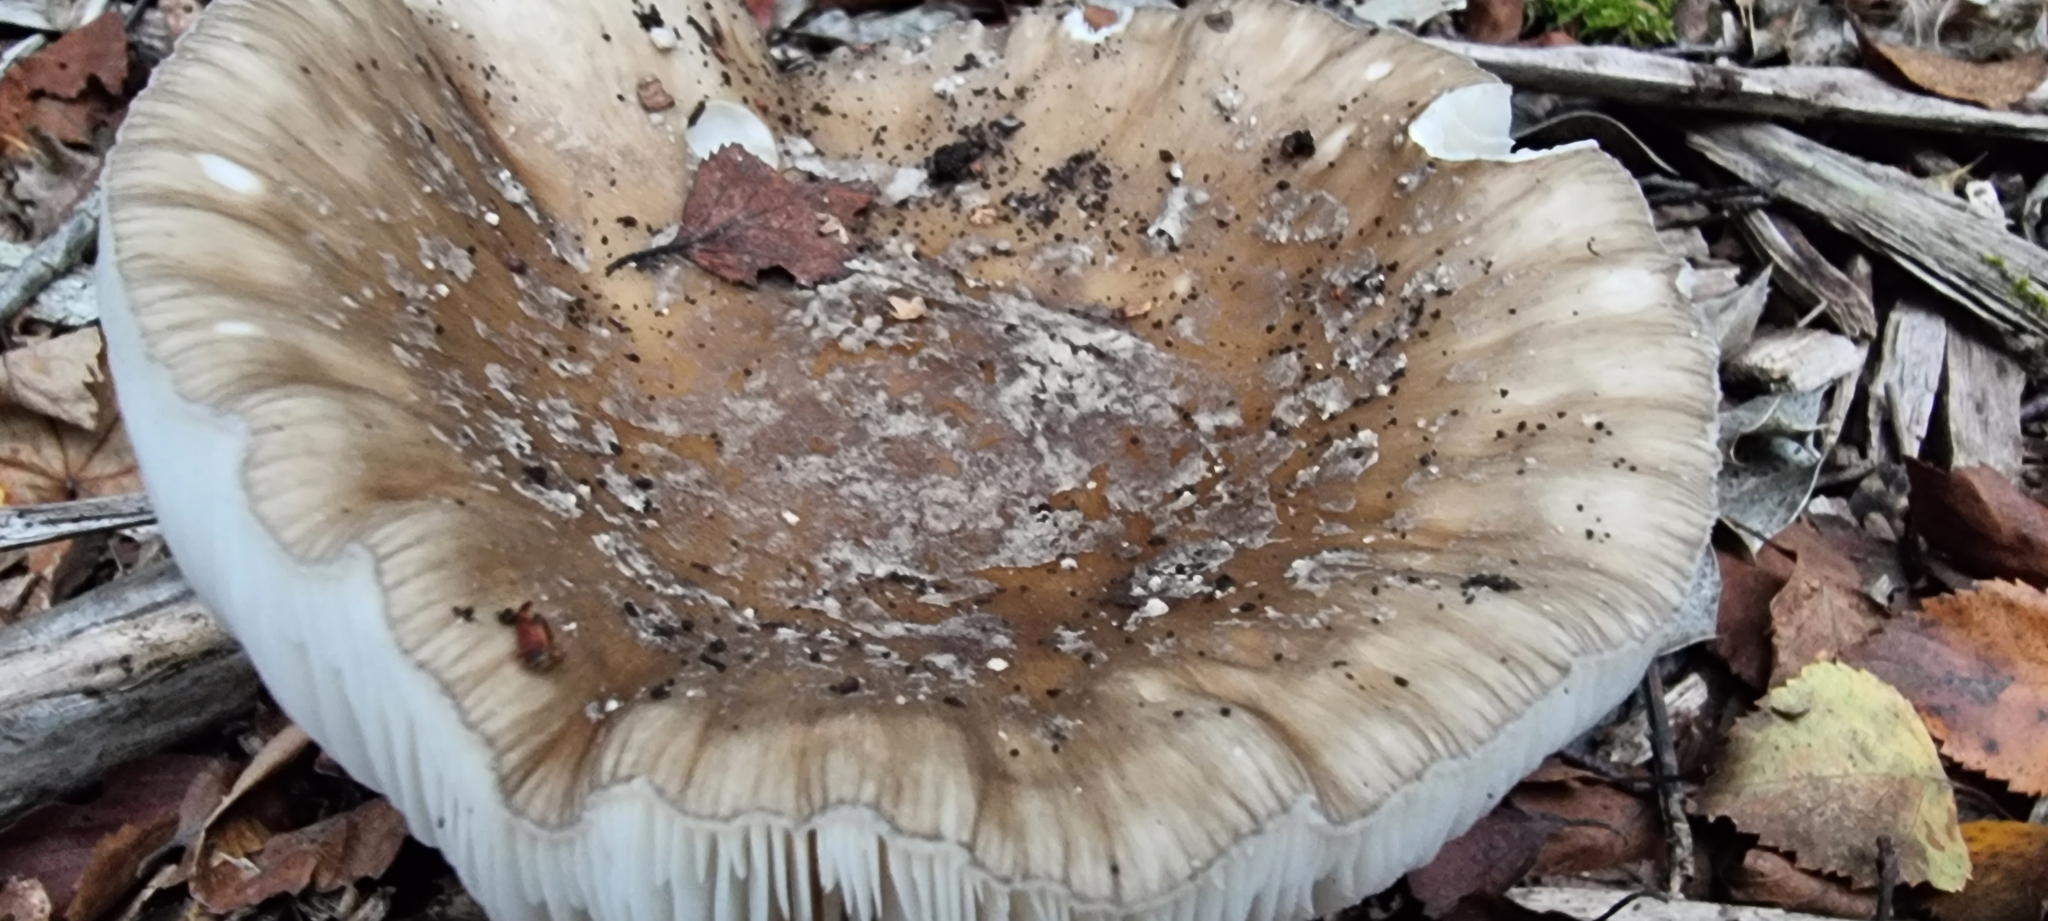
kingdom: Fungi
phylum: Basidiomycota
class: Agaricomycetes
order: Agaricales
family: Amanitaceae
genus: Amanita
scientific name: Amanita excelsa
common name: European false blusher
